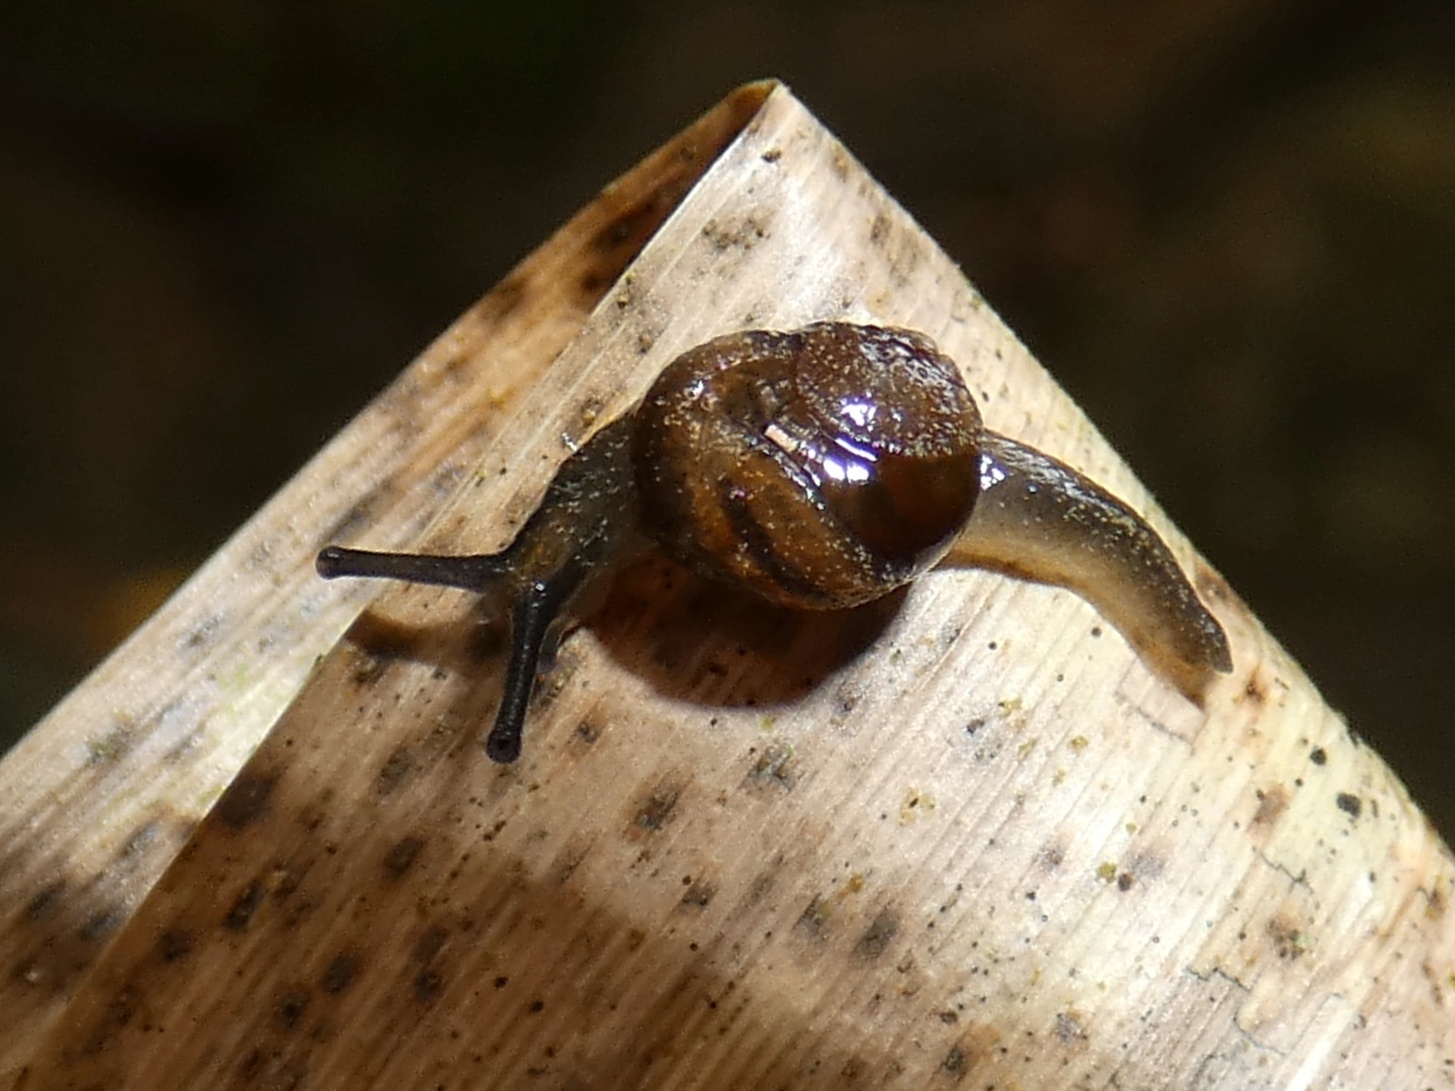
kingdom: Animalia
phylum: Mollusca
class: Gastropoda
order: Stylommatophora
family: Helicarionidae
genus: Fastosarion
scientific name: Fastosarion brazieri
